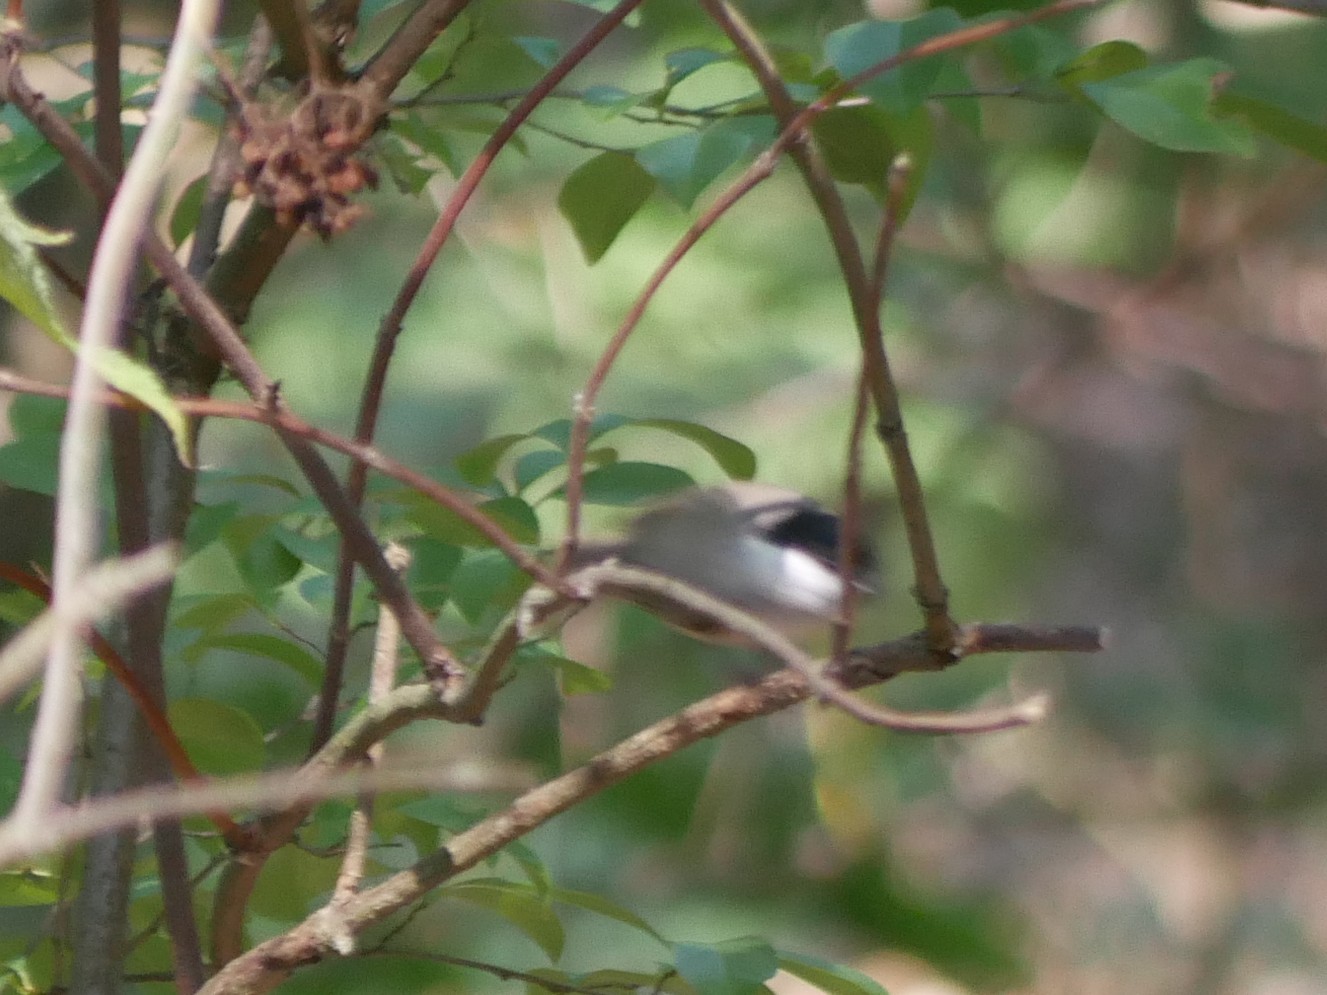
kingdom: Animalia
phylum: Chordata
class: Aves
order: Passeriformes
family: Paridae
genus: Poecile
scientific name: Poecile palustris
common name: Marsh tit
